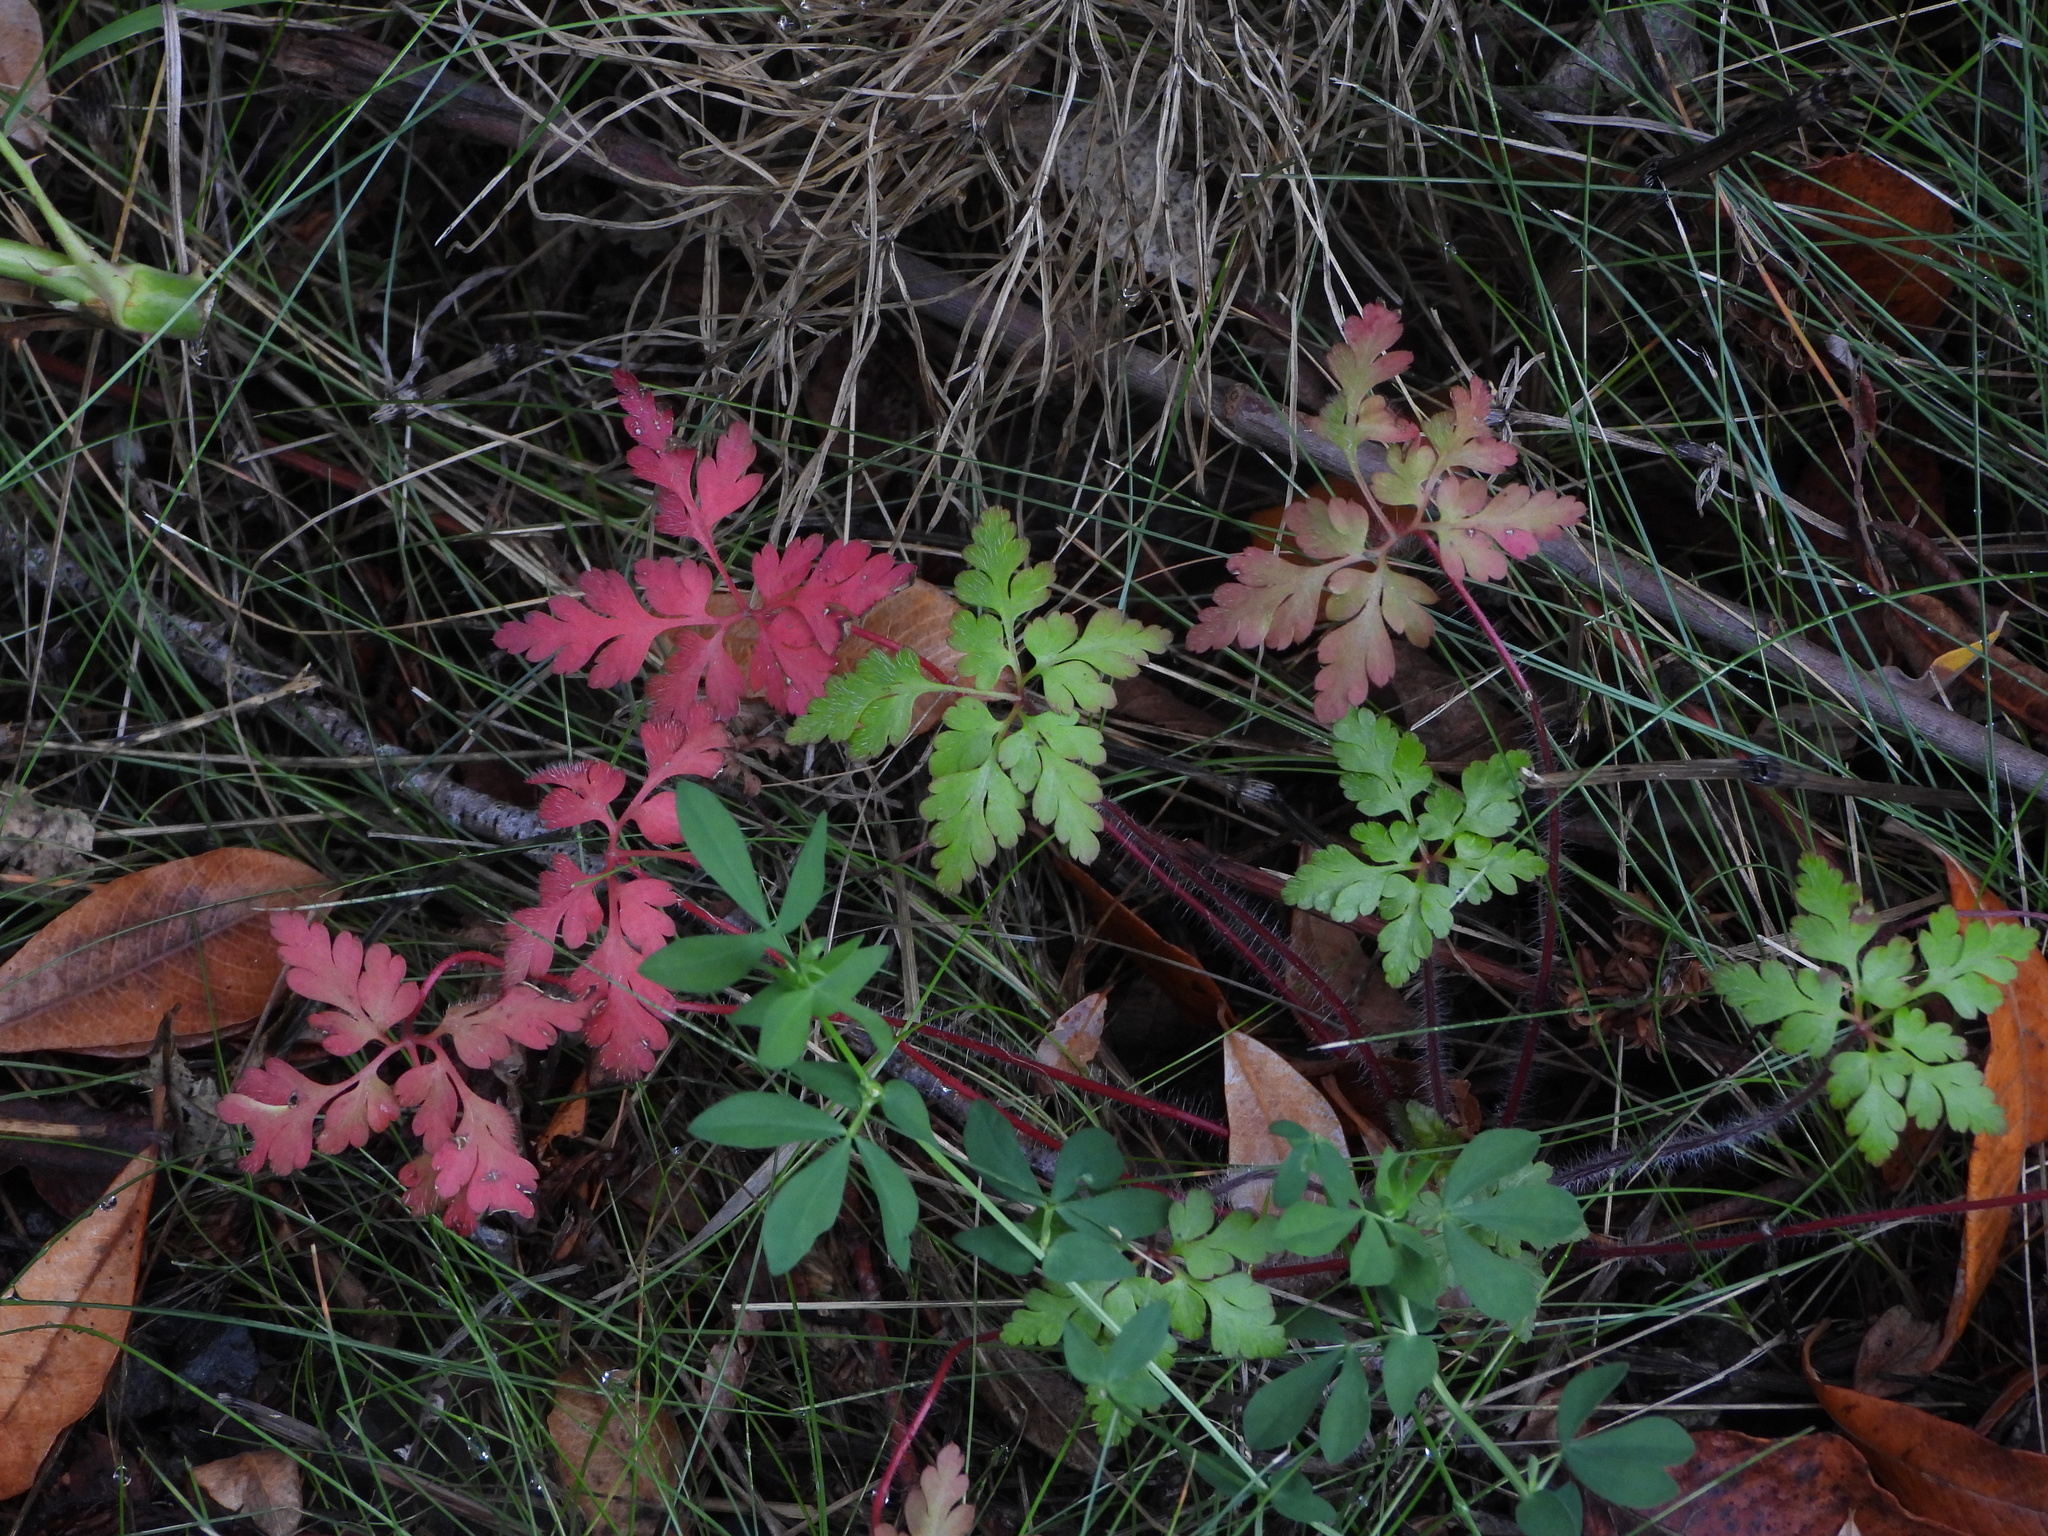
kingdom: Plantae
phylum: Tracheophyta
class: Magnoliopsida
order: Geraniales
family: Geraniaceae
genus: Geranium
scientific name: Geranium robertianum
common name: Herb-robert
